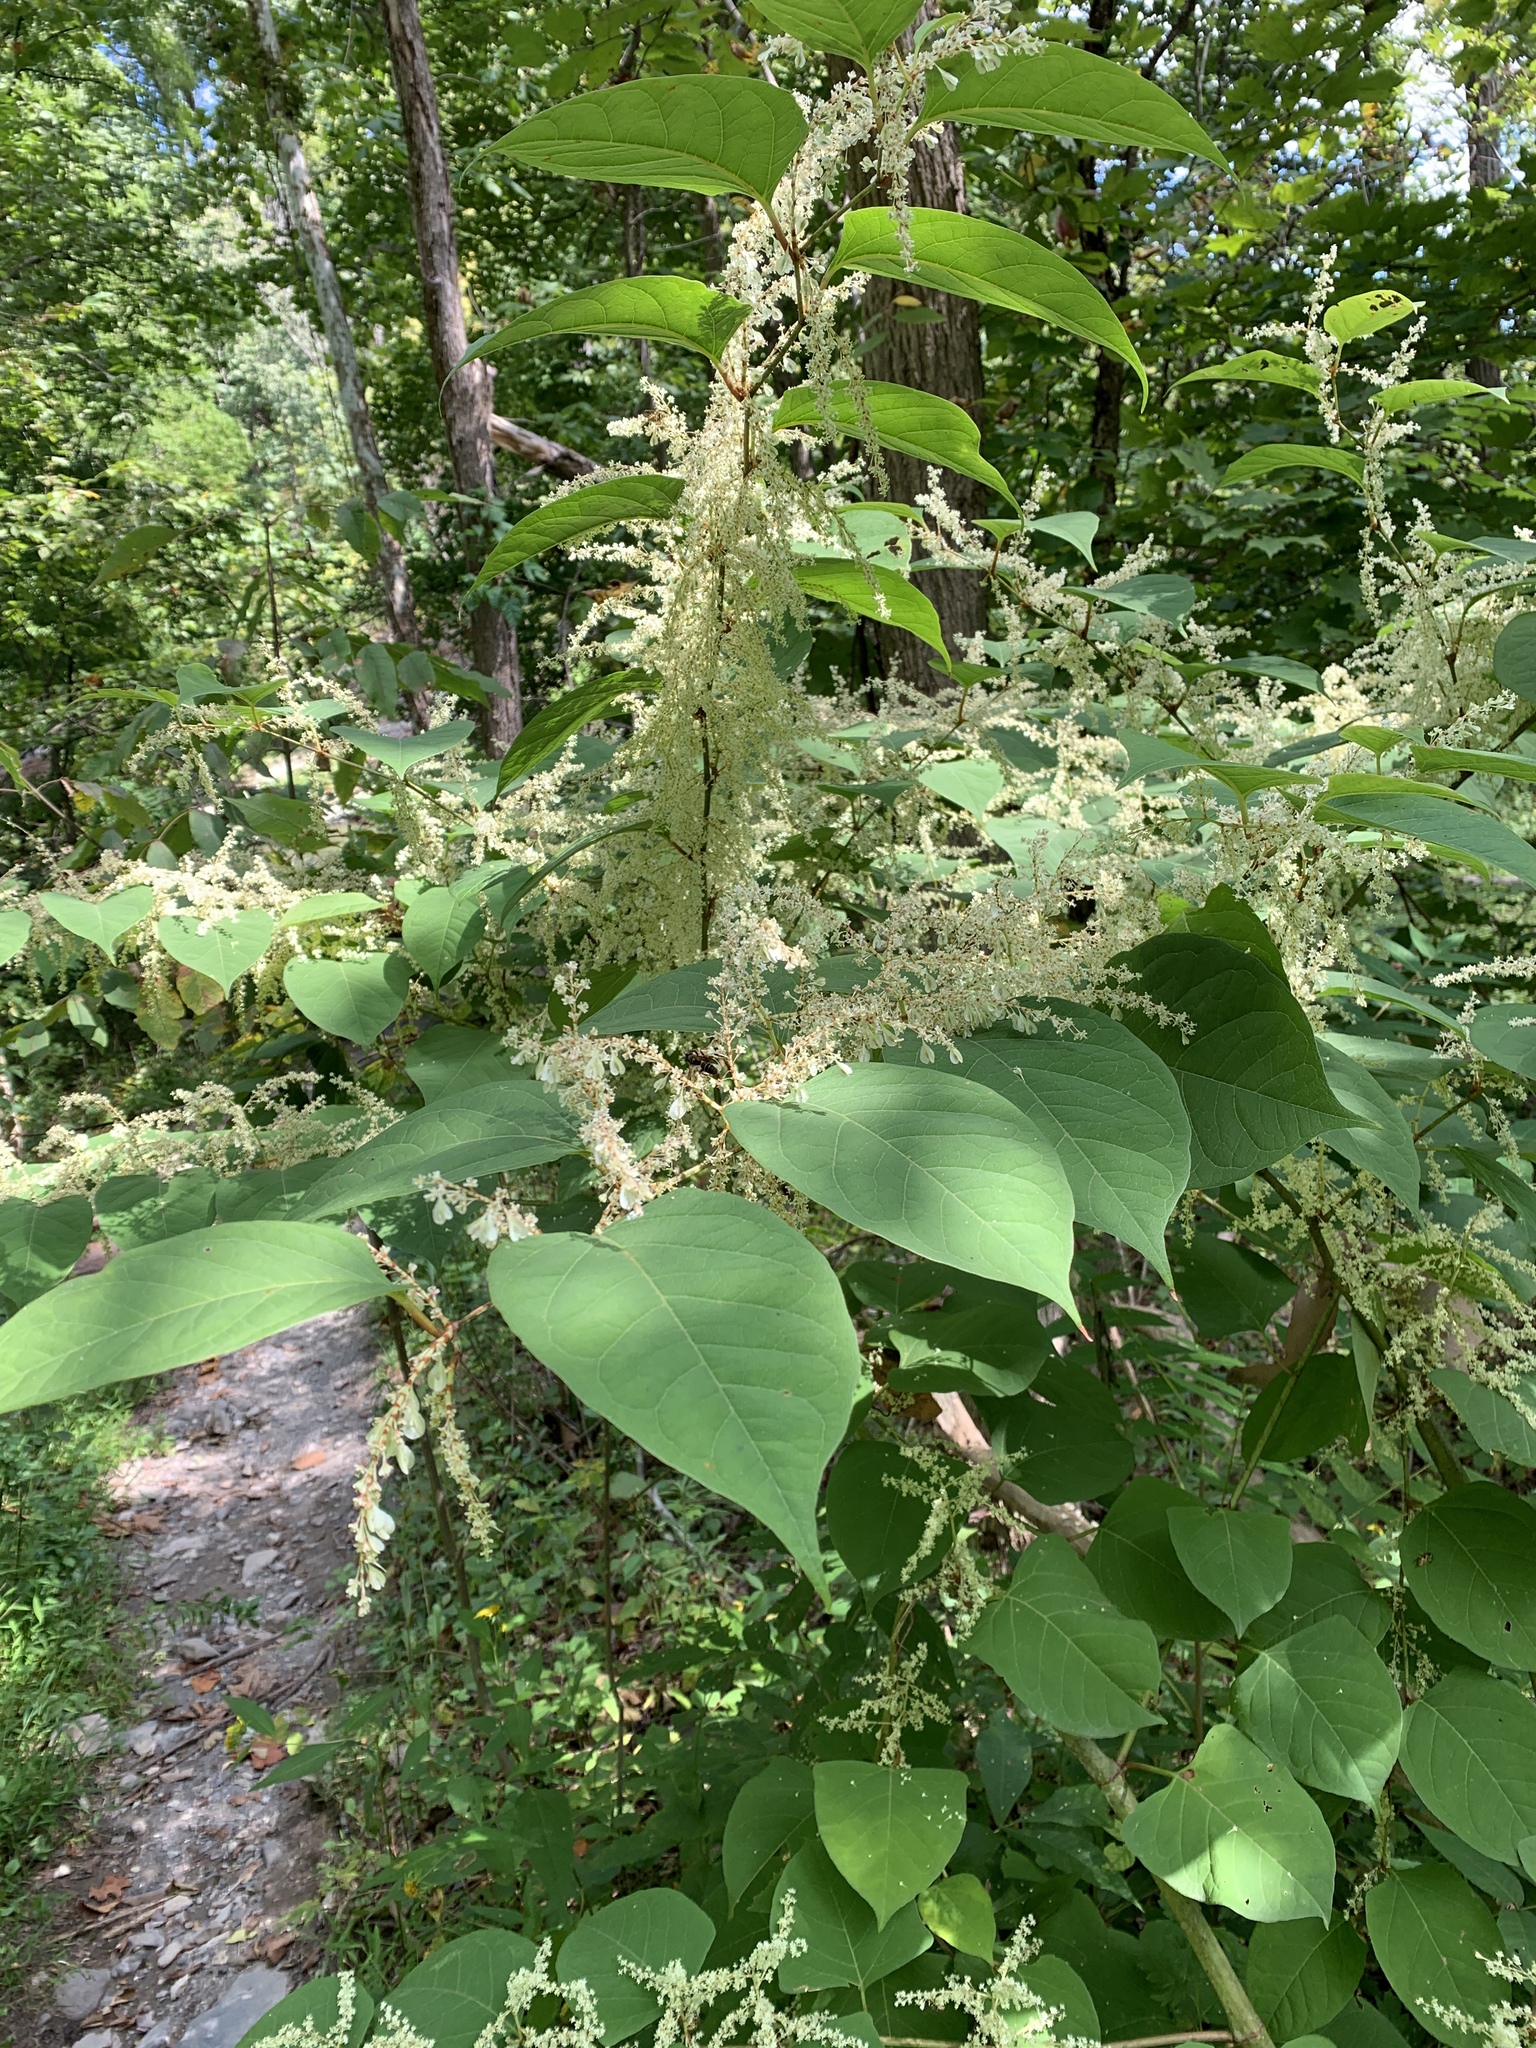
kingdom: Plantae
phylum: Tracheophyta
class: Magnoliopsida
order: Caryophyllales
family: Polygonaceae
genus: Reynoutria
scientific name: Reynoutria japonica
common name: Japanese knotweed
